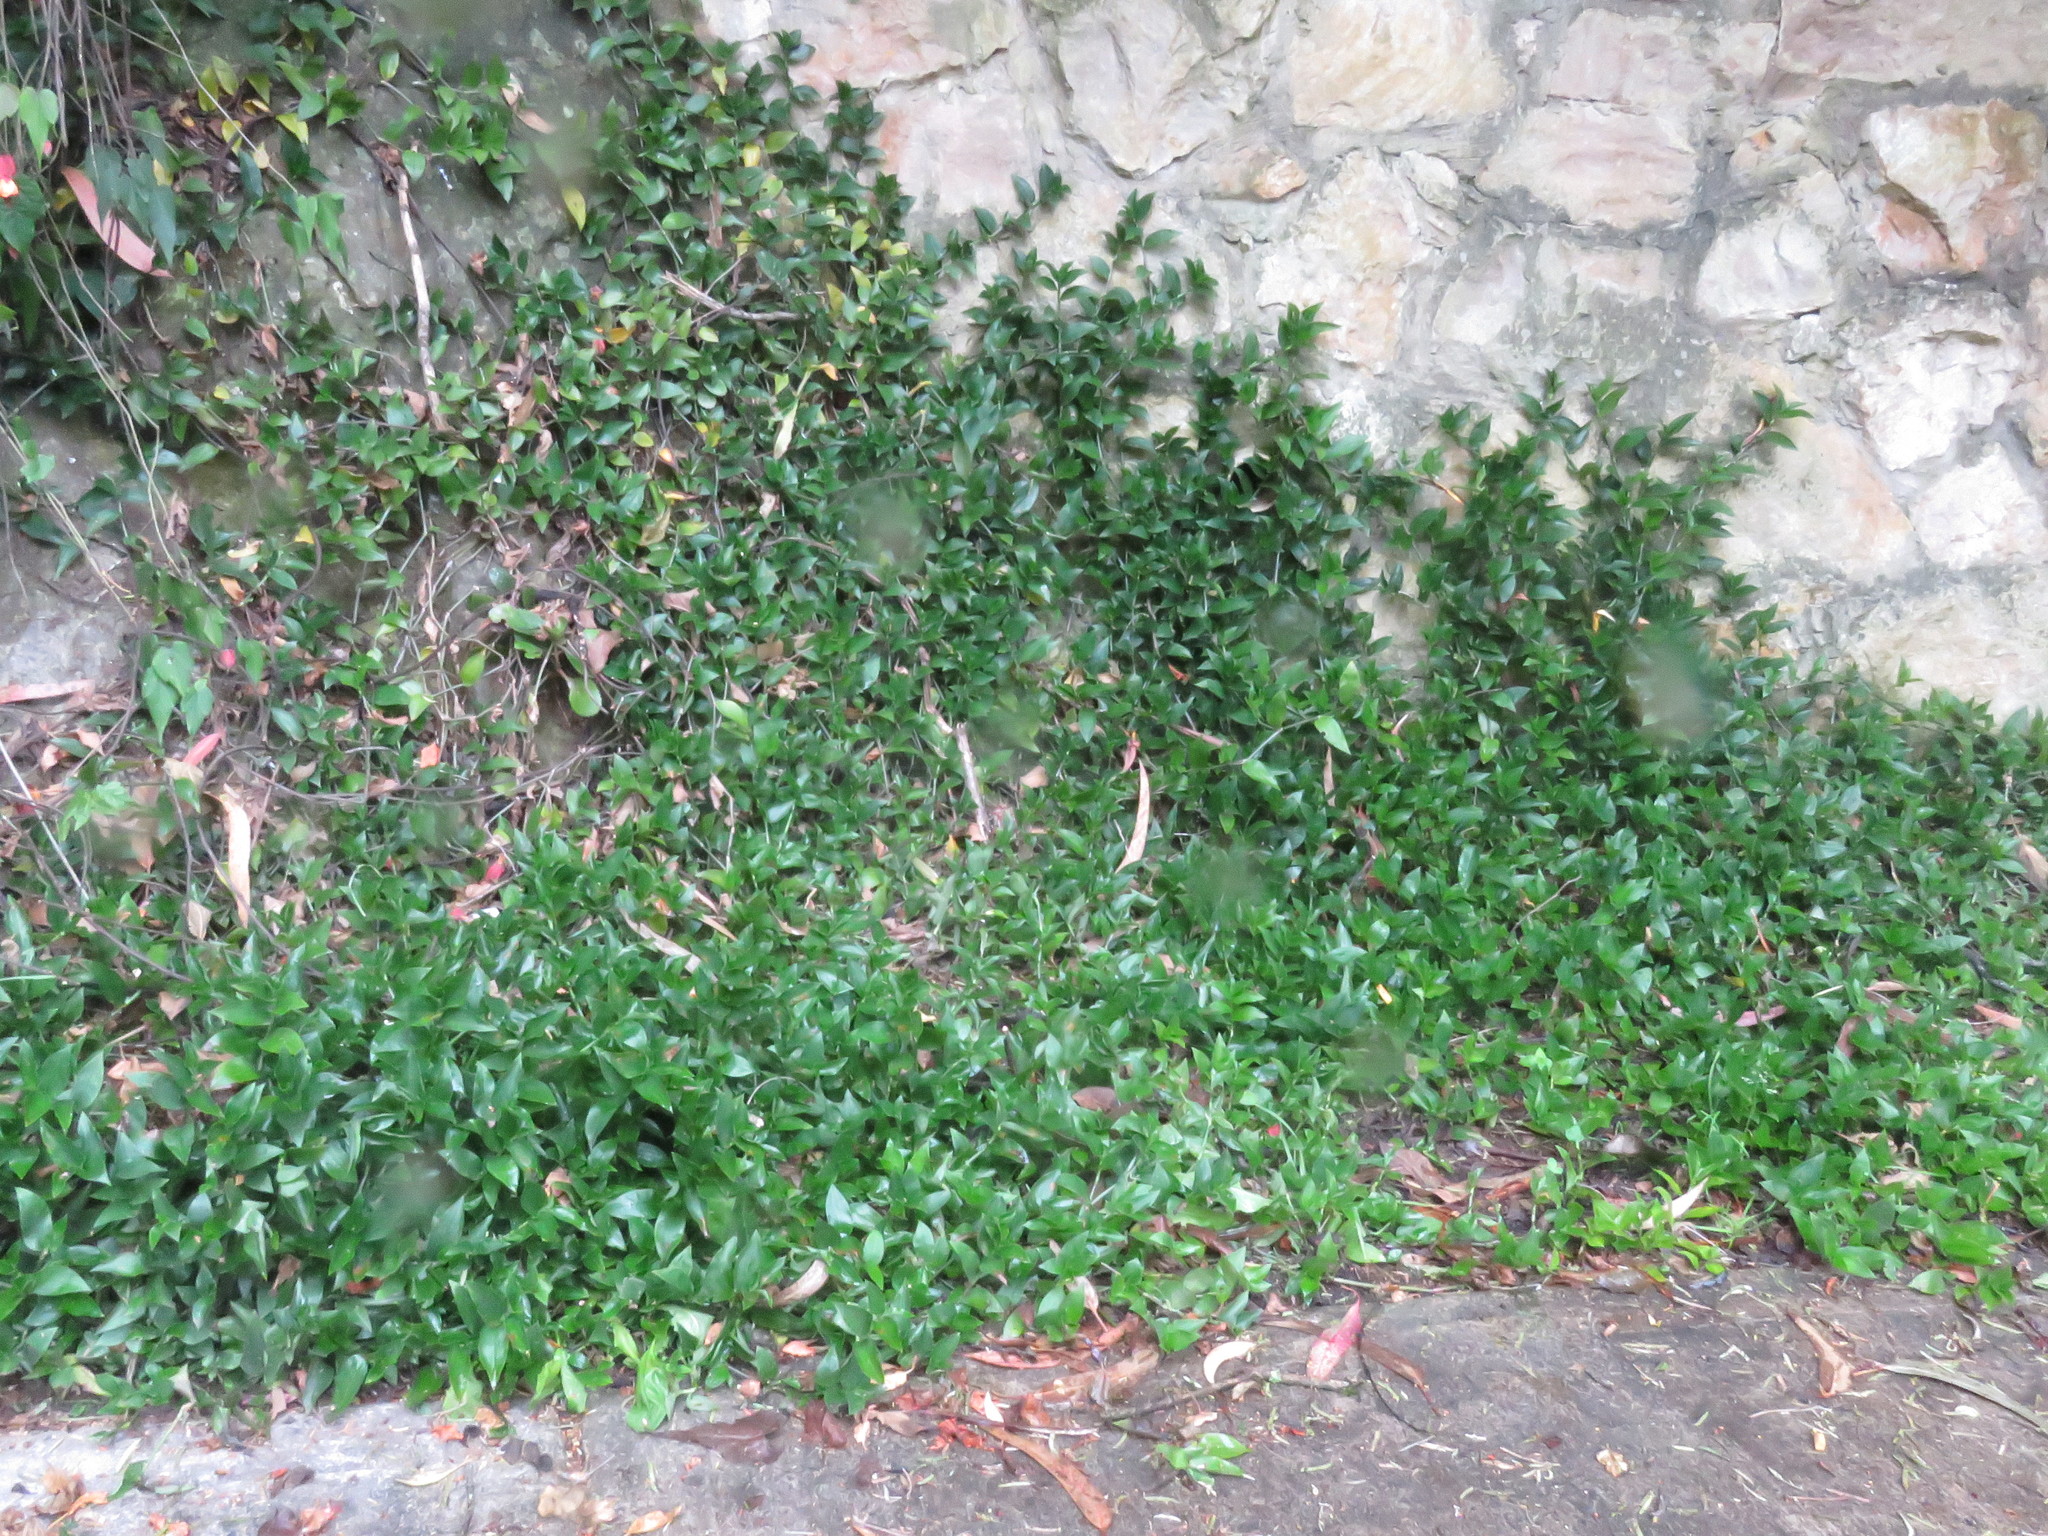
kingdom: Plantae
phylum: Tracheophyta
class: Liliopsida
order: Commelinales
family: Commelinaceae
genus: Tradescantia
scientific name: Tradescantia fluminensis
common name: Wandering-jew
